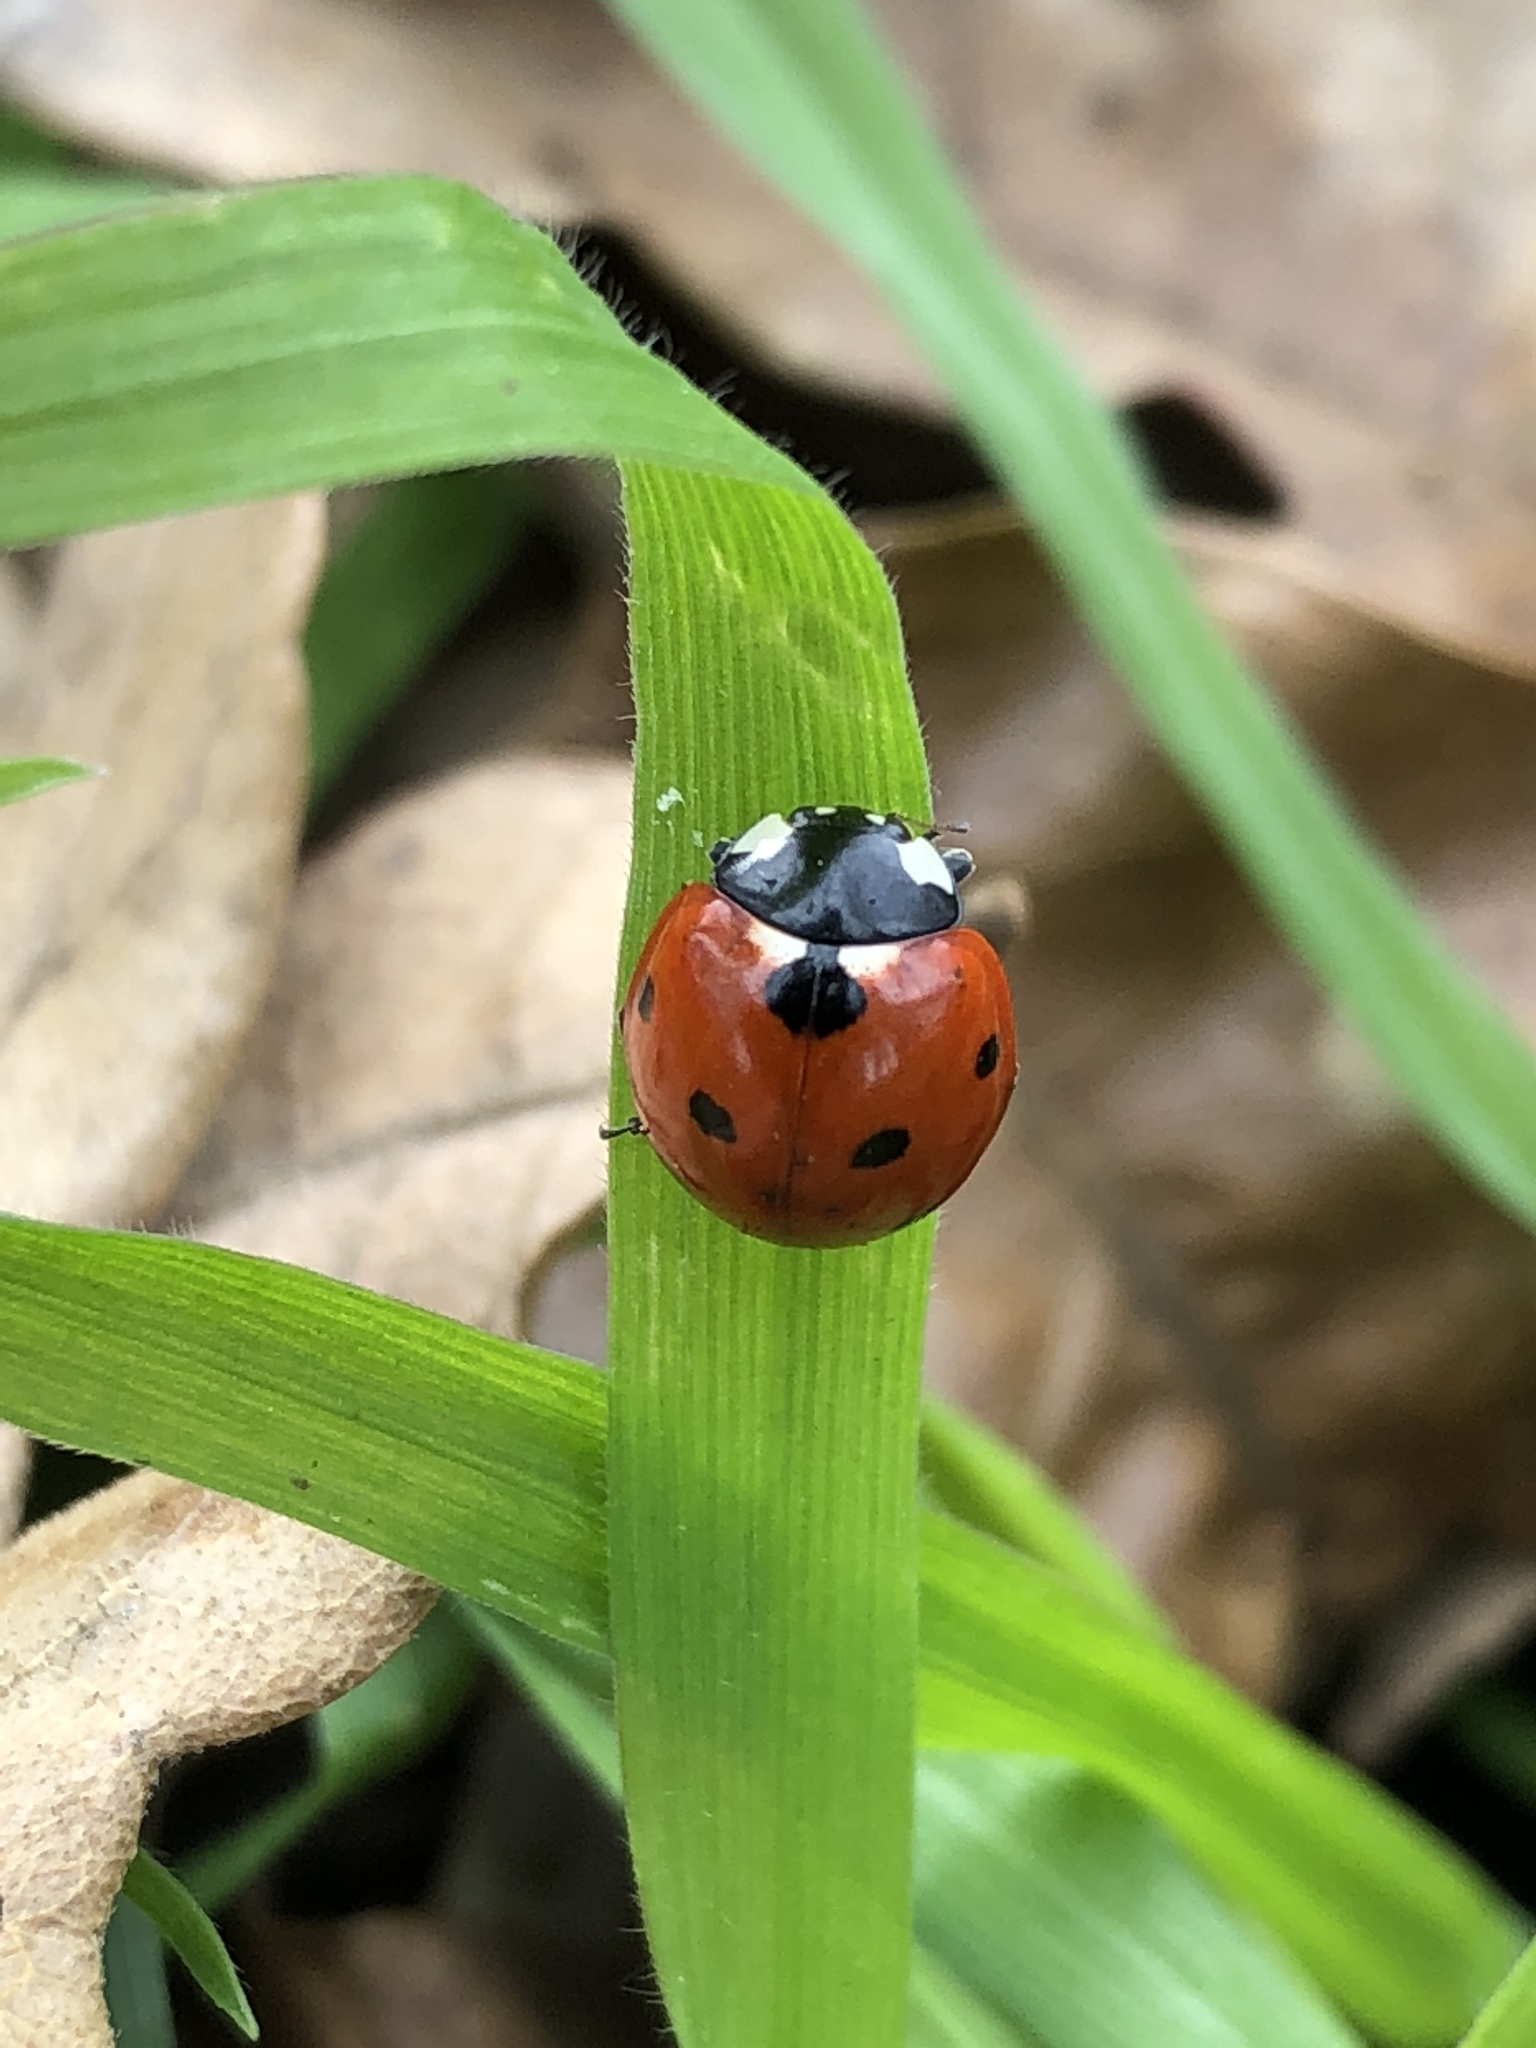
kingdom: Animalia
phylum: Arthropoda
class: Insecta
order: Coleoptera
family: Coccinellidae
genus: Coccinella
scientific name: Coccinella septempunctata
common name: Sevenspotted lady beetle
